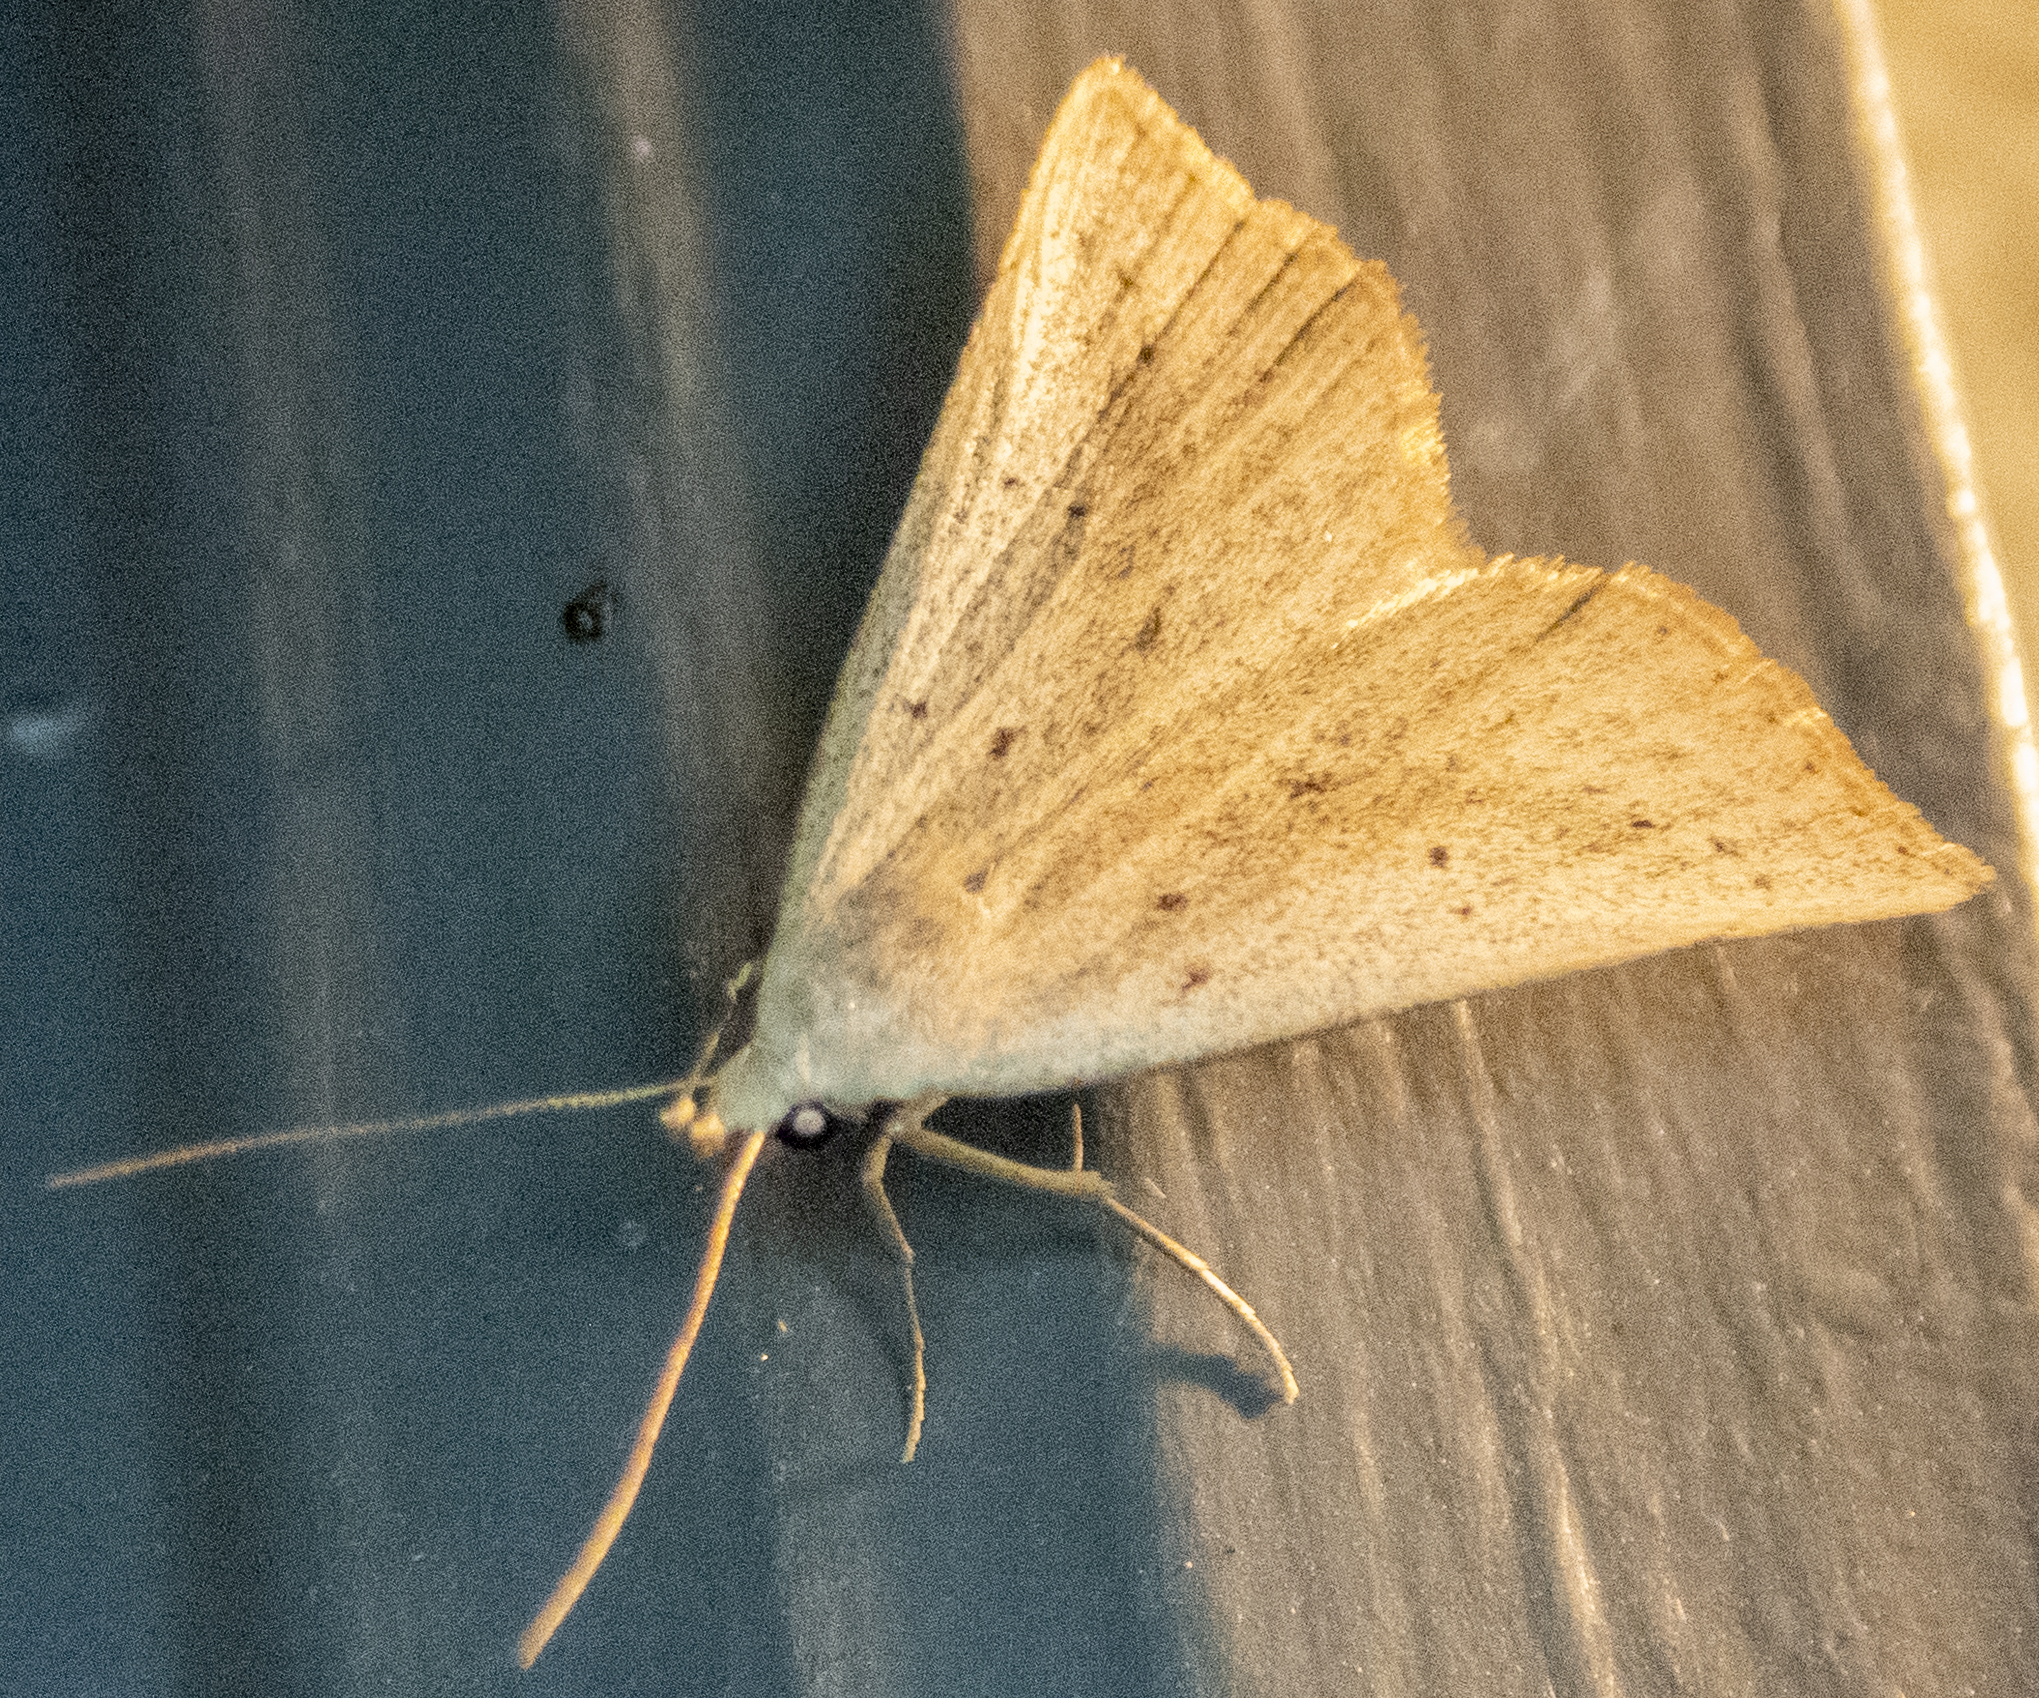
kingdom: Animalia
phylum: Arthropoda
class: Insecta
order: Lepidoptera
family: Erebidae
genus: Macrochilo
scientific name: Macrochilo louisiana
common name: Louisiana macrochilo
